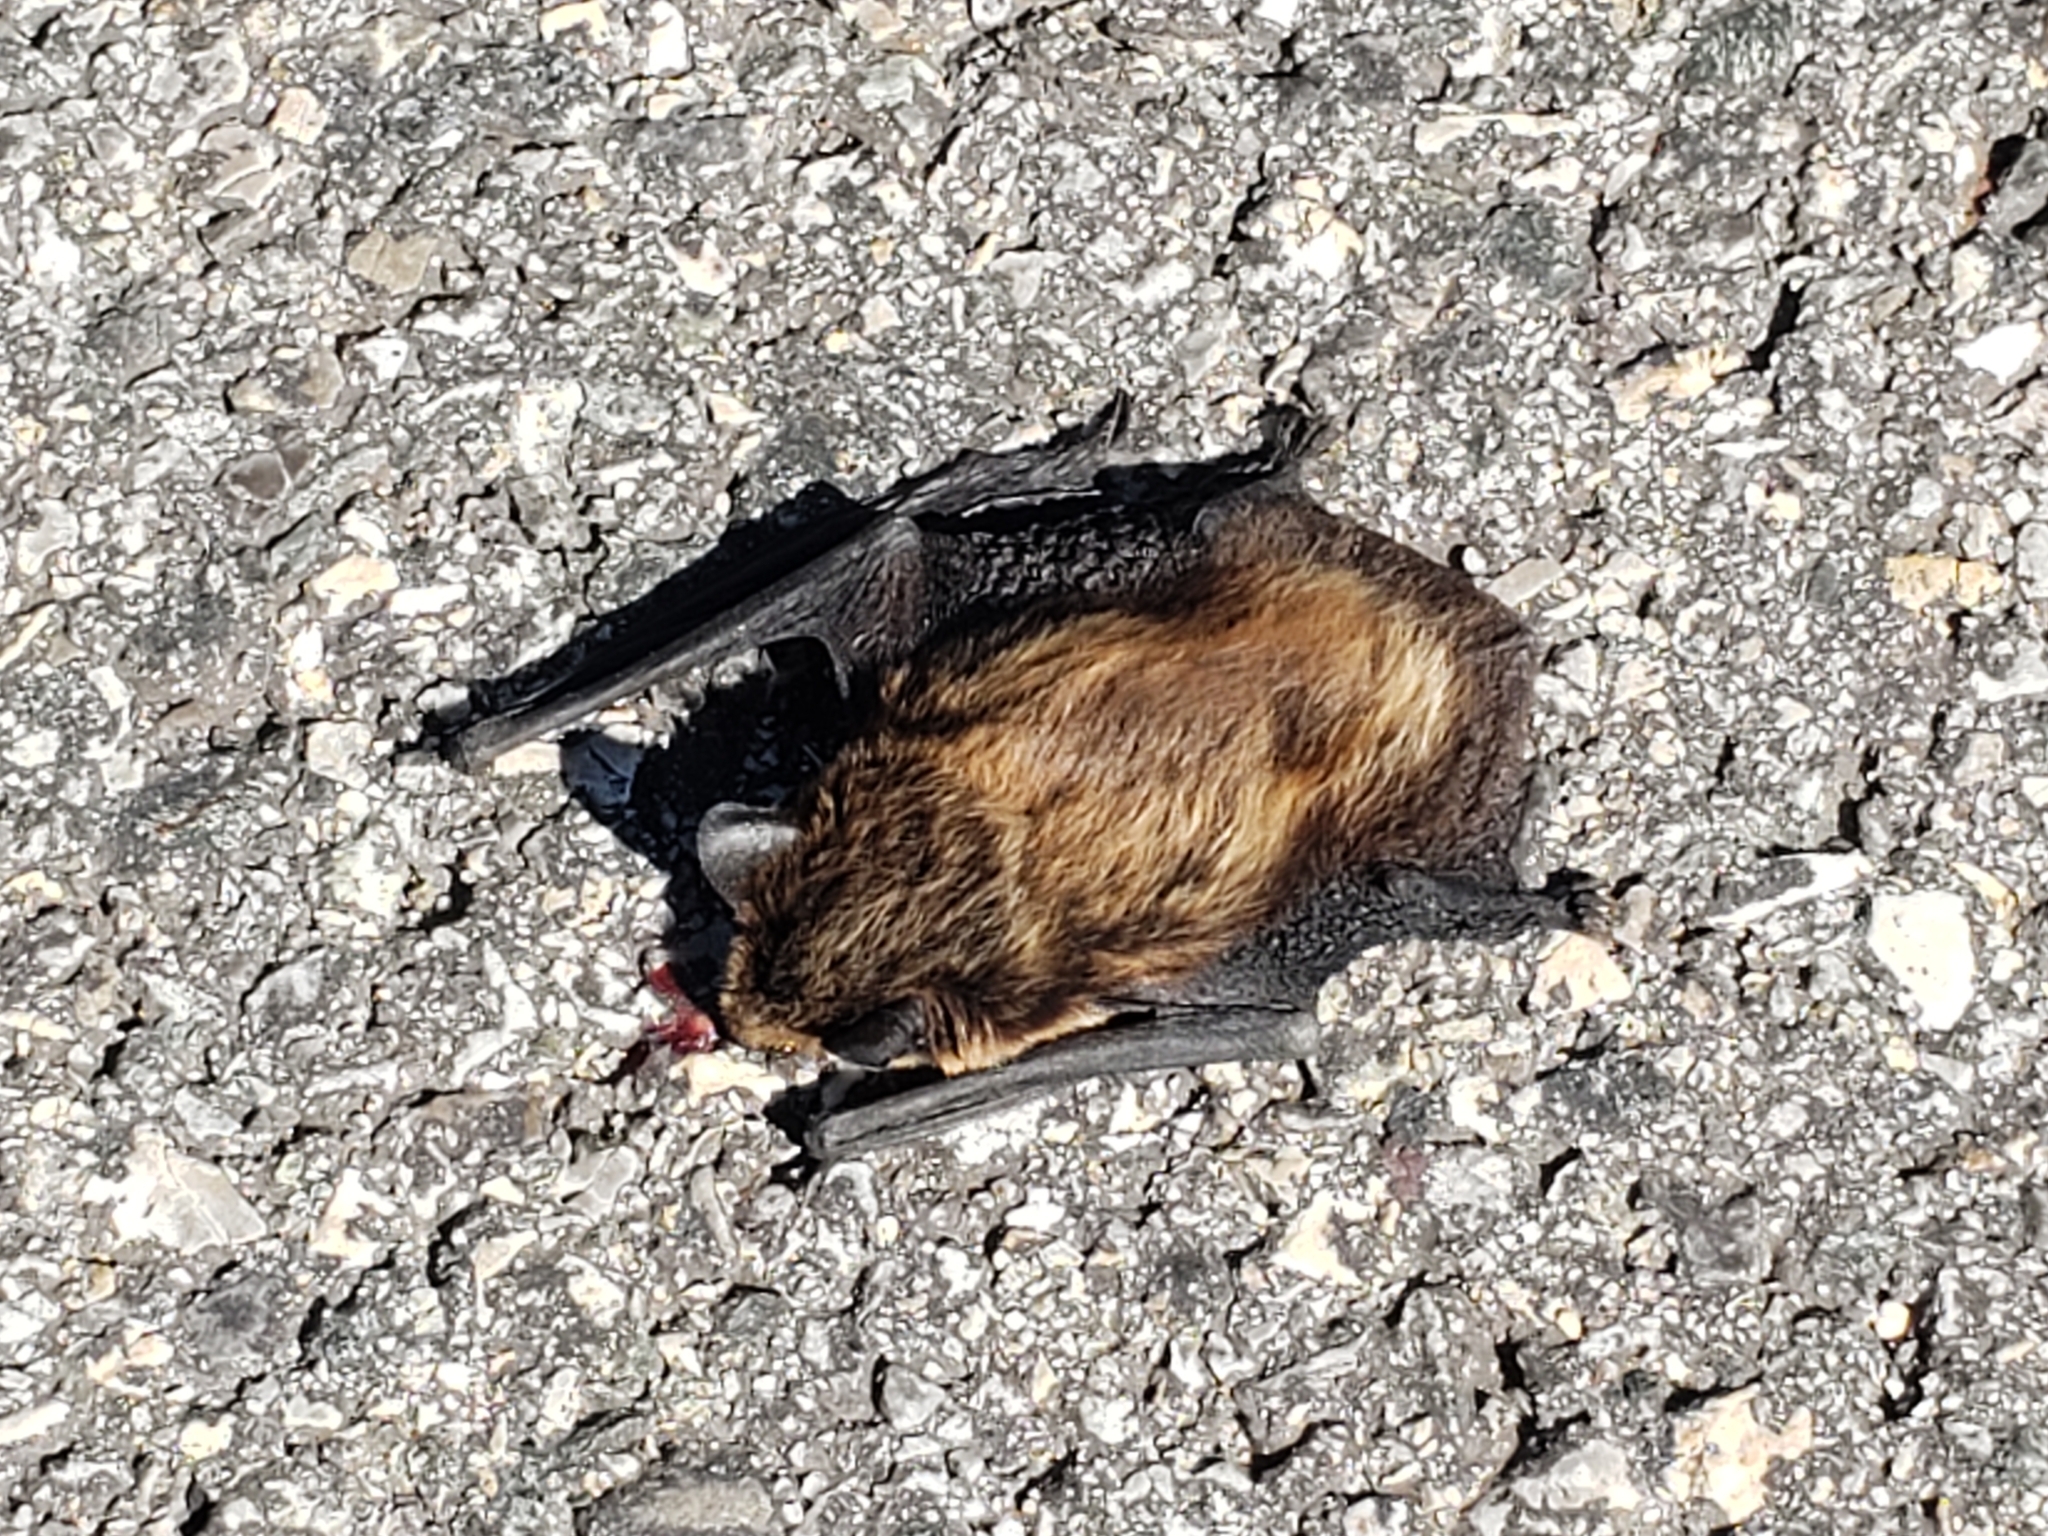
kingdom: Animalia
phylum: Chordata
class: Mammalia
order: Chiroptera
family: Vespertilionidae
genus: Eptesicus
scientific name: Eptesicus nilssonii
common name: Northern bat
